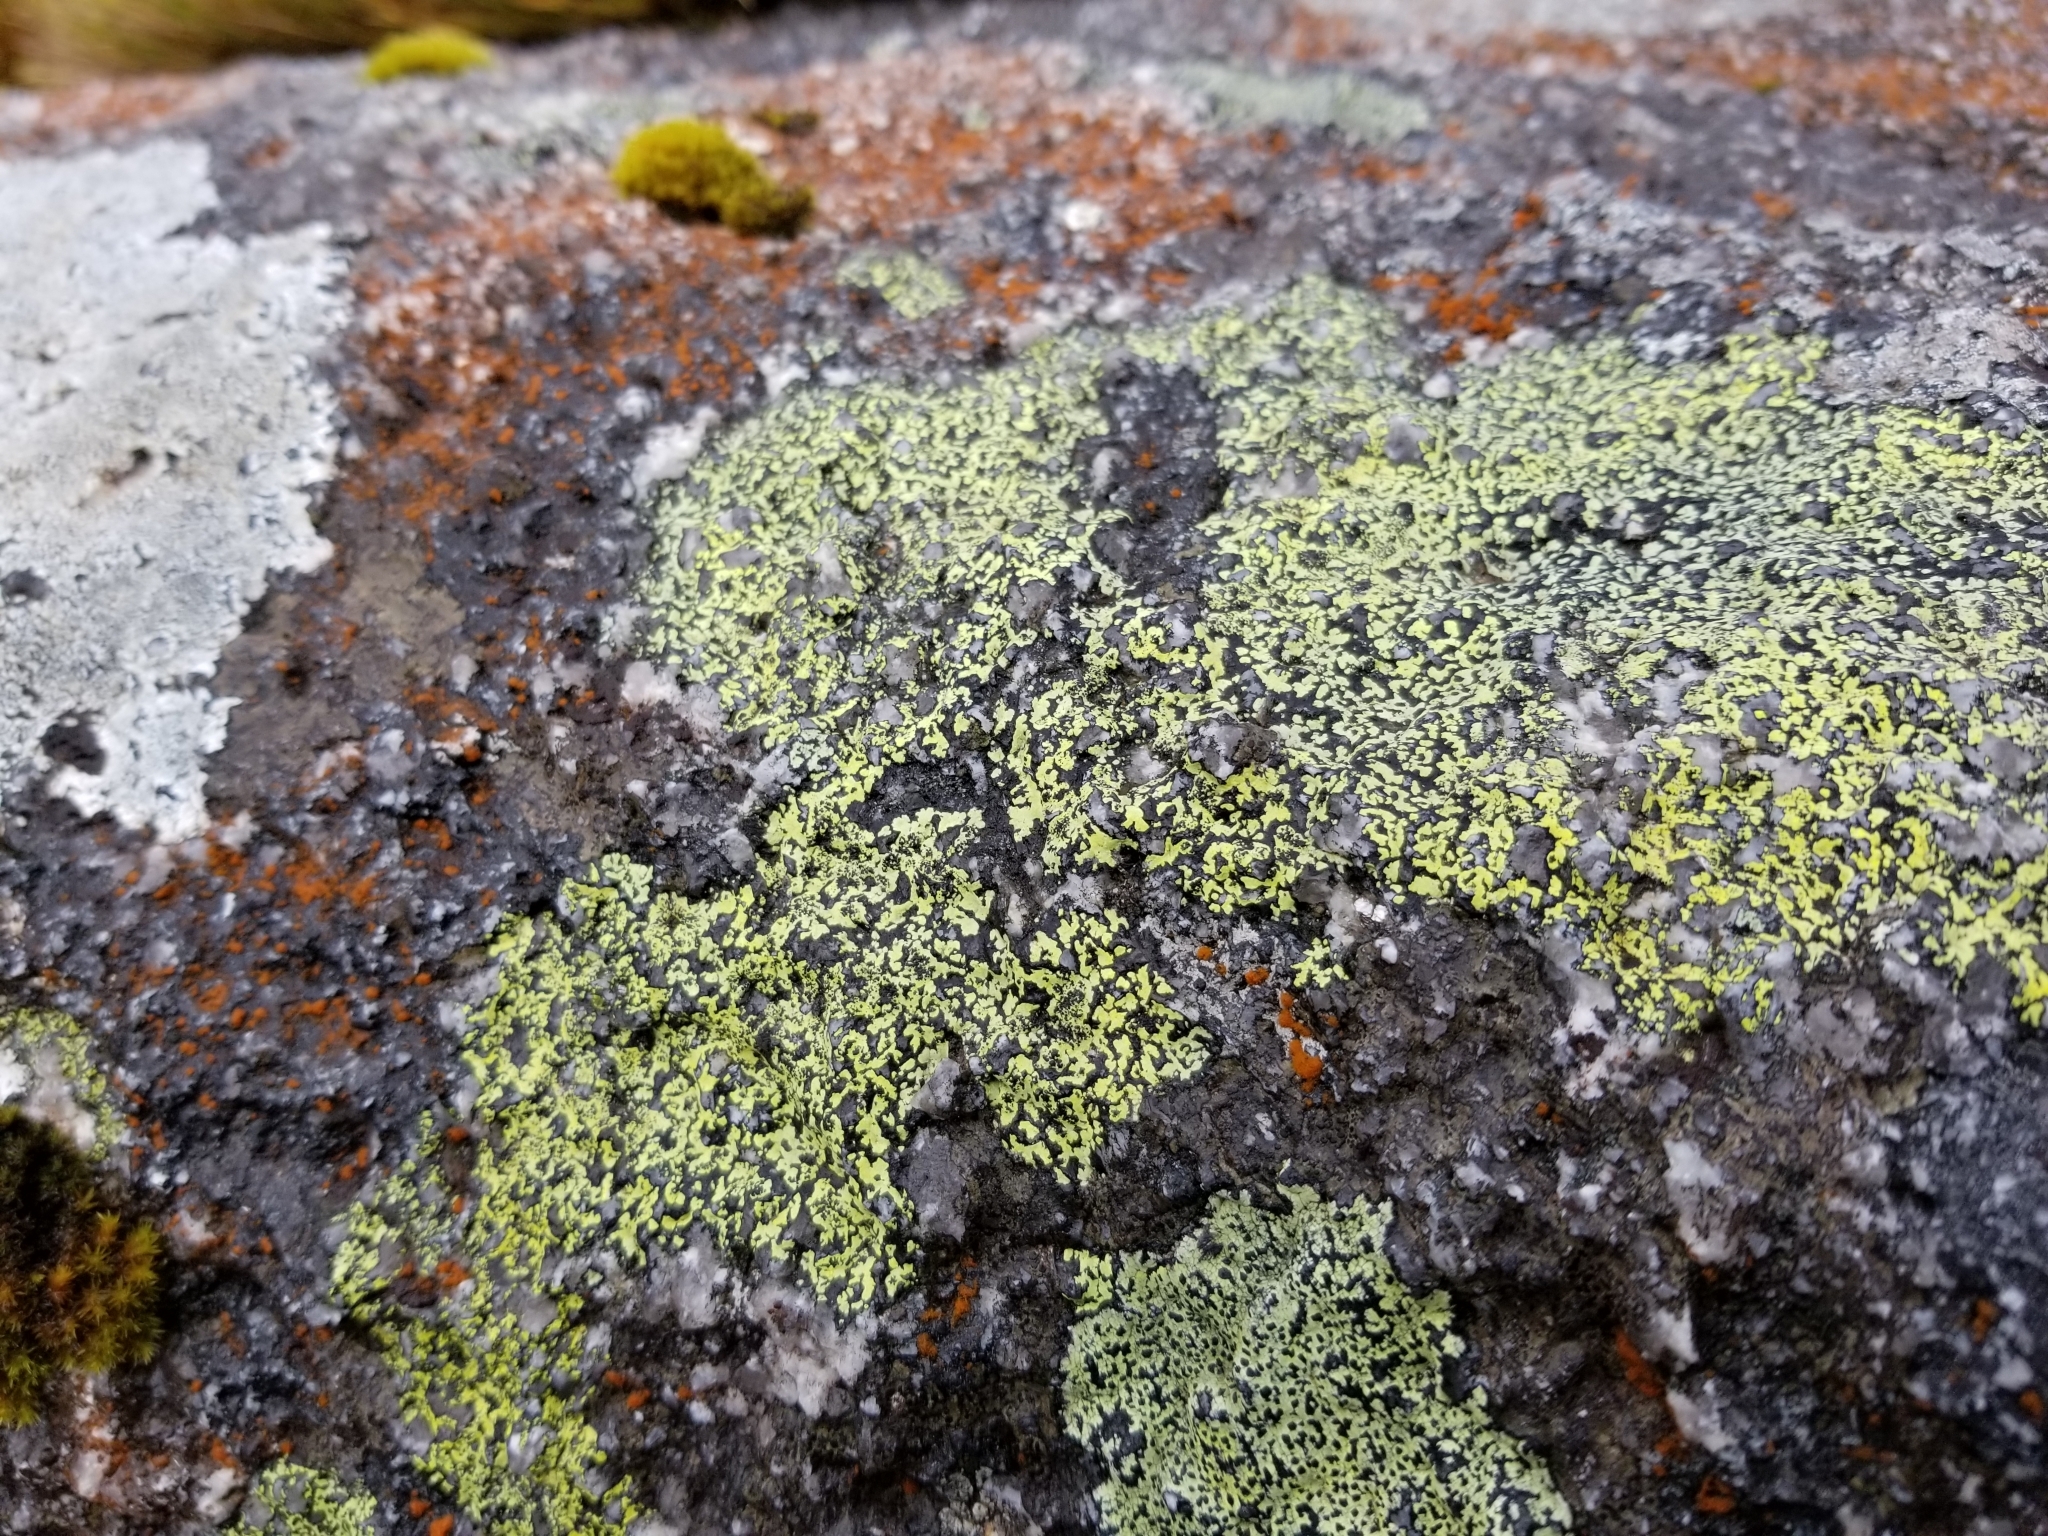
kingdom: Fungi
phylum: Ascomycota
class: Lecanoromycetes
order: Rhizocarpales
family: Rhizocarpaceae
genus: Rhizocarpon
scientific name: Rhizocarpon geographicum
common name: Yellow map lichen
